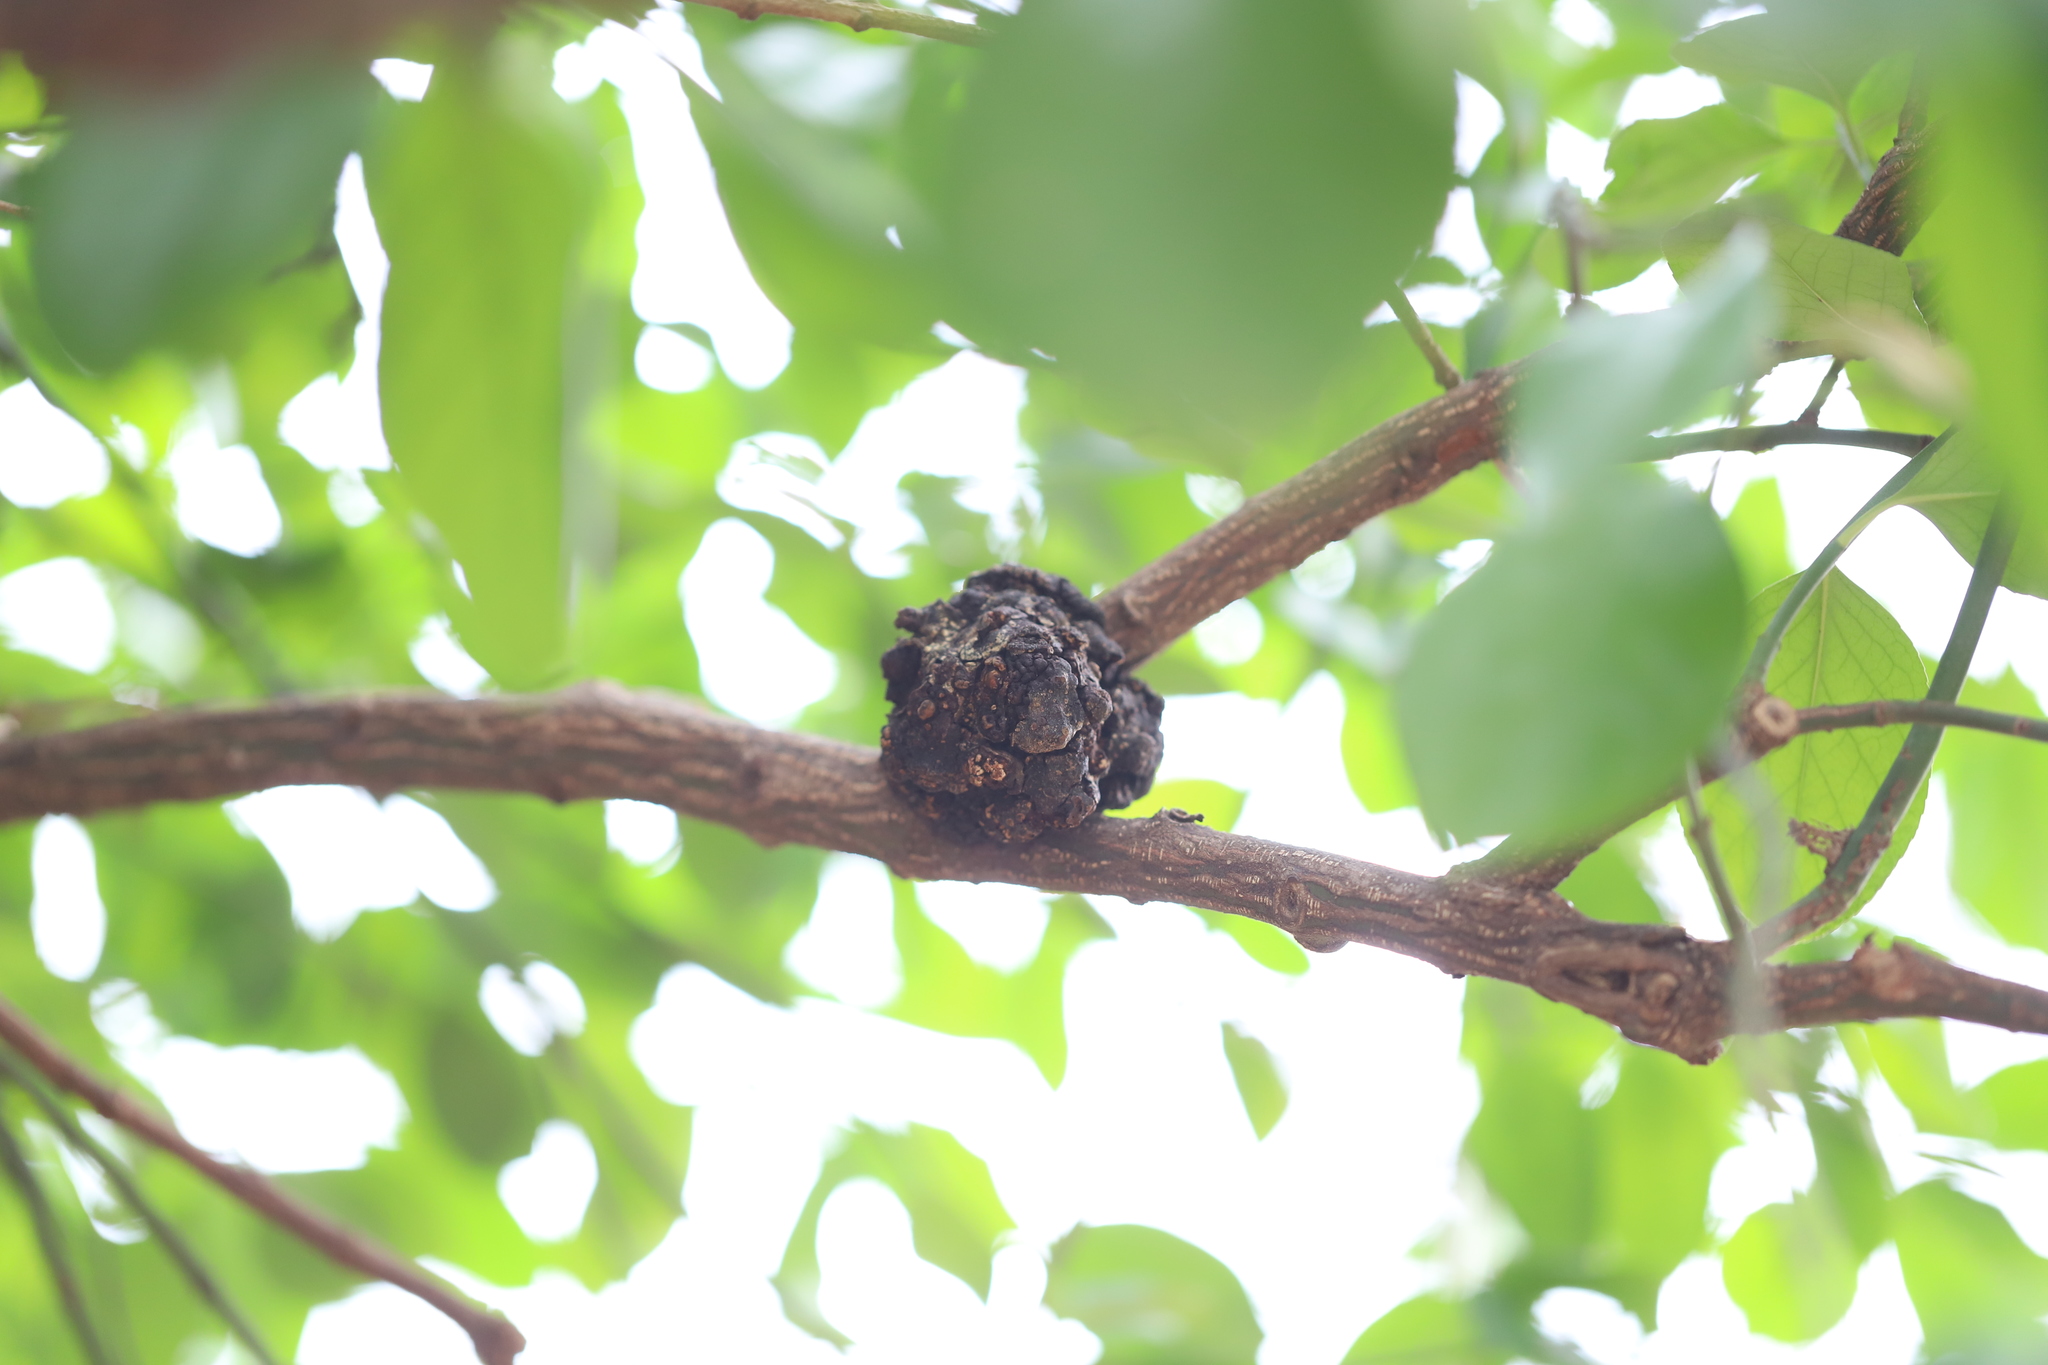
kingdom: Bacteria
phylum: Proteobacteria
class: Alphaproteobacteria
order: Rhizobiales
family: Rhizobiaceae
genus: Rhizobium
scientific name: Rhizobium Agrobacterium radiobacter
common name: Bacterial crown gall
